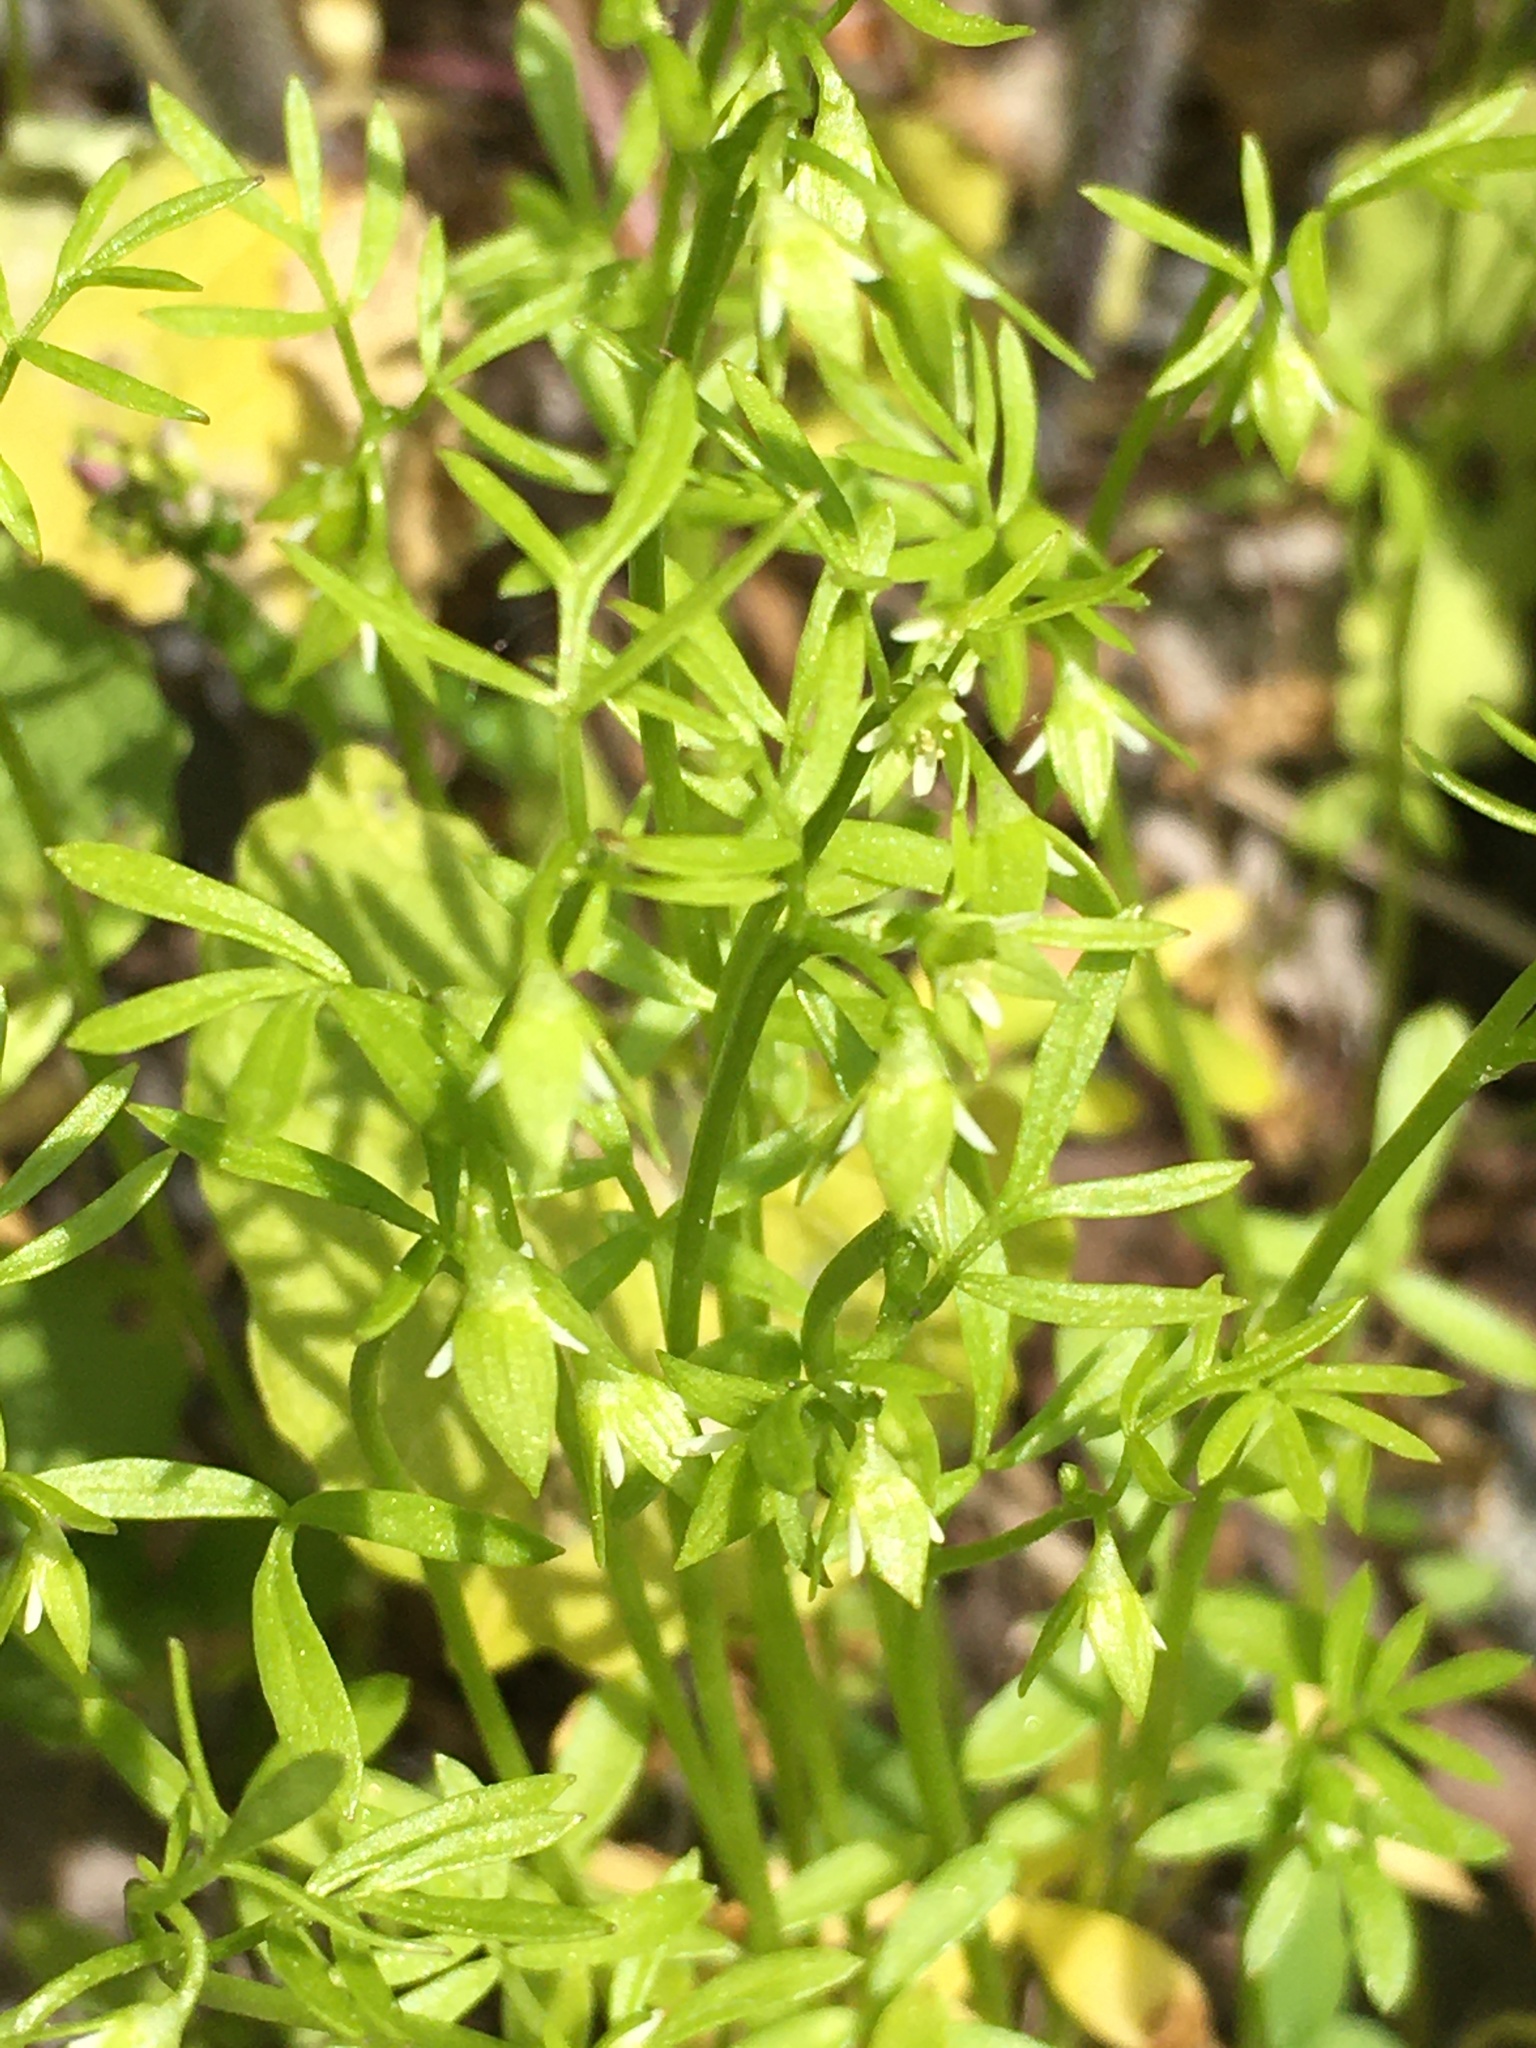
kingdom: Plantae
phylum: Tracheophyta
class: Magnoliopsida
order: Brassicales
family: Limnanthaceae
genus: Floerkea
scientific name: Floerkea proserpinacoides
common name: False mermaid
